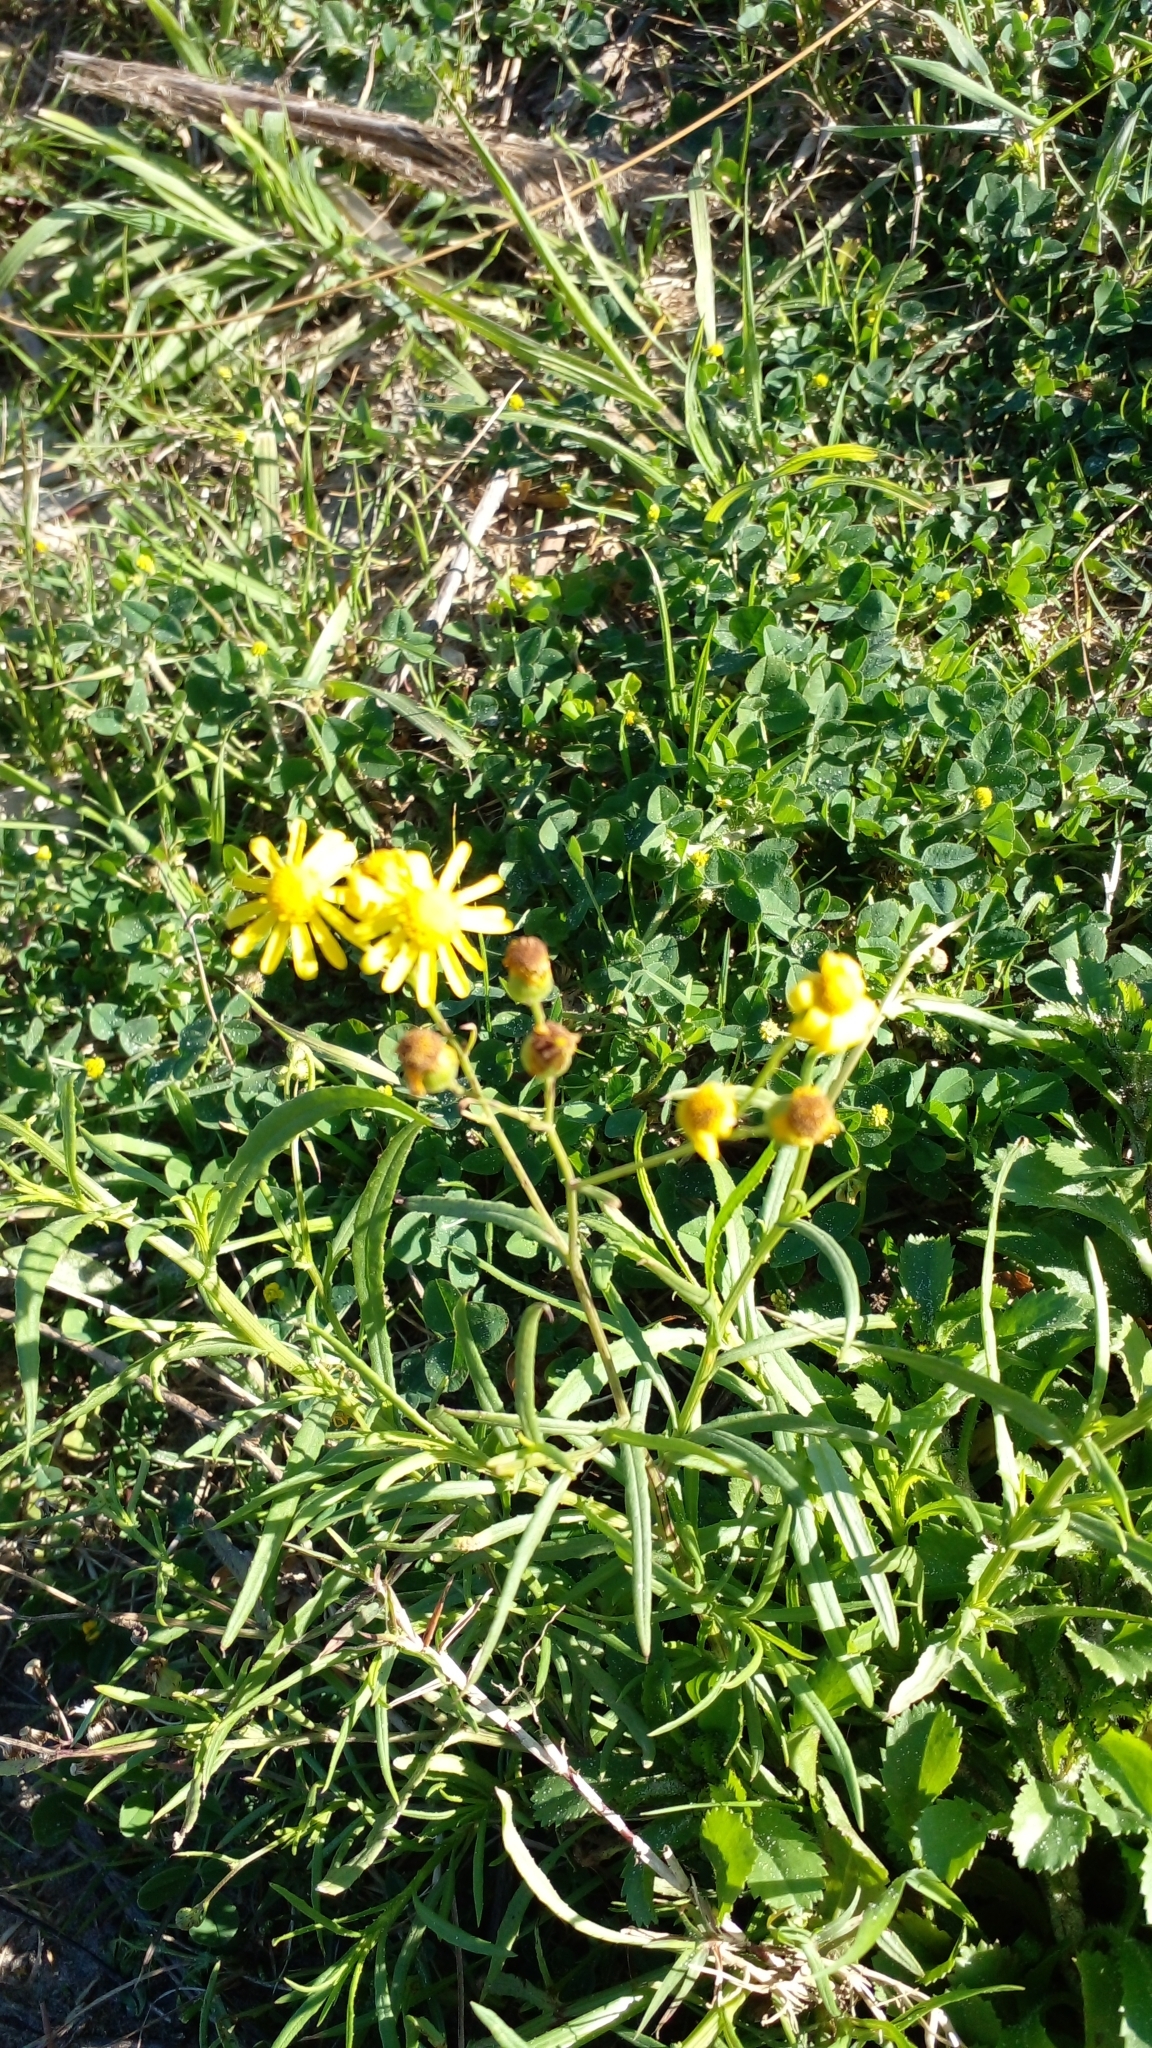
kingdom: Plantae
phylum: Tracheophyta
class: Magnoliopsida
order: Asterales
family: Asteraceae
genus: Senecio
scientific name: Senecio madagascariensis
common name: Madagascar ragwort
